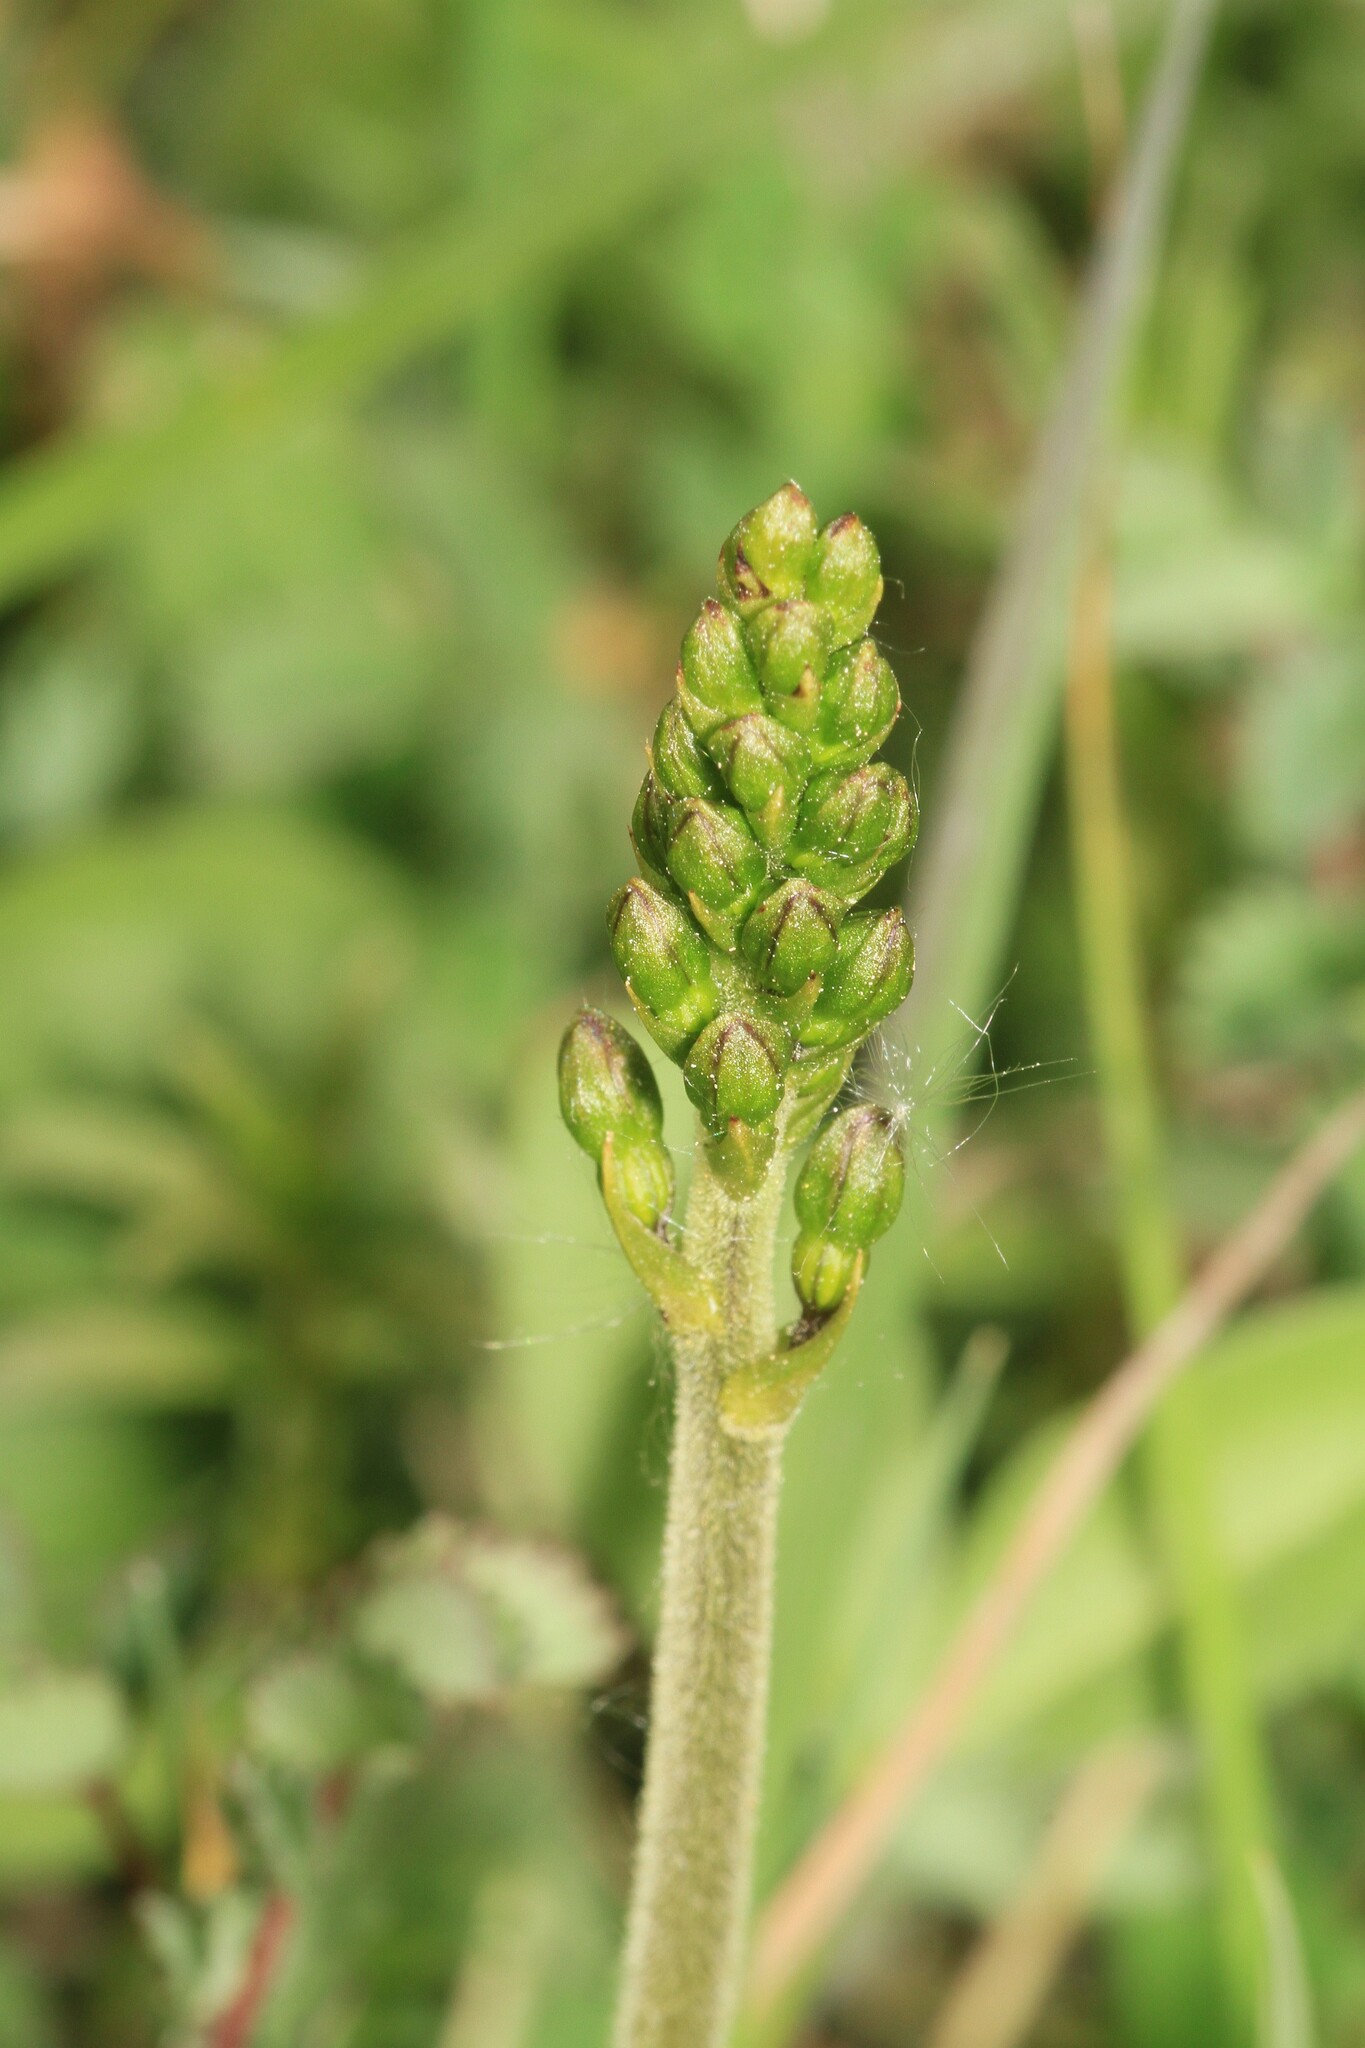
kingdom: Plantae
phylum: Tracheophyta
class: Liliopsida
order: Asparagales
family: Orchidaceae
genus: Neottia
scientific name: Neottia ovata
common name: Common twayblade
